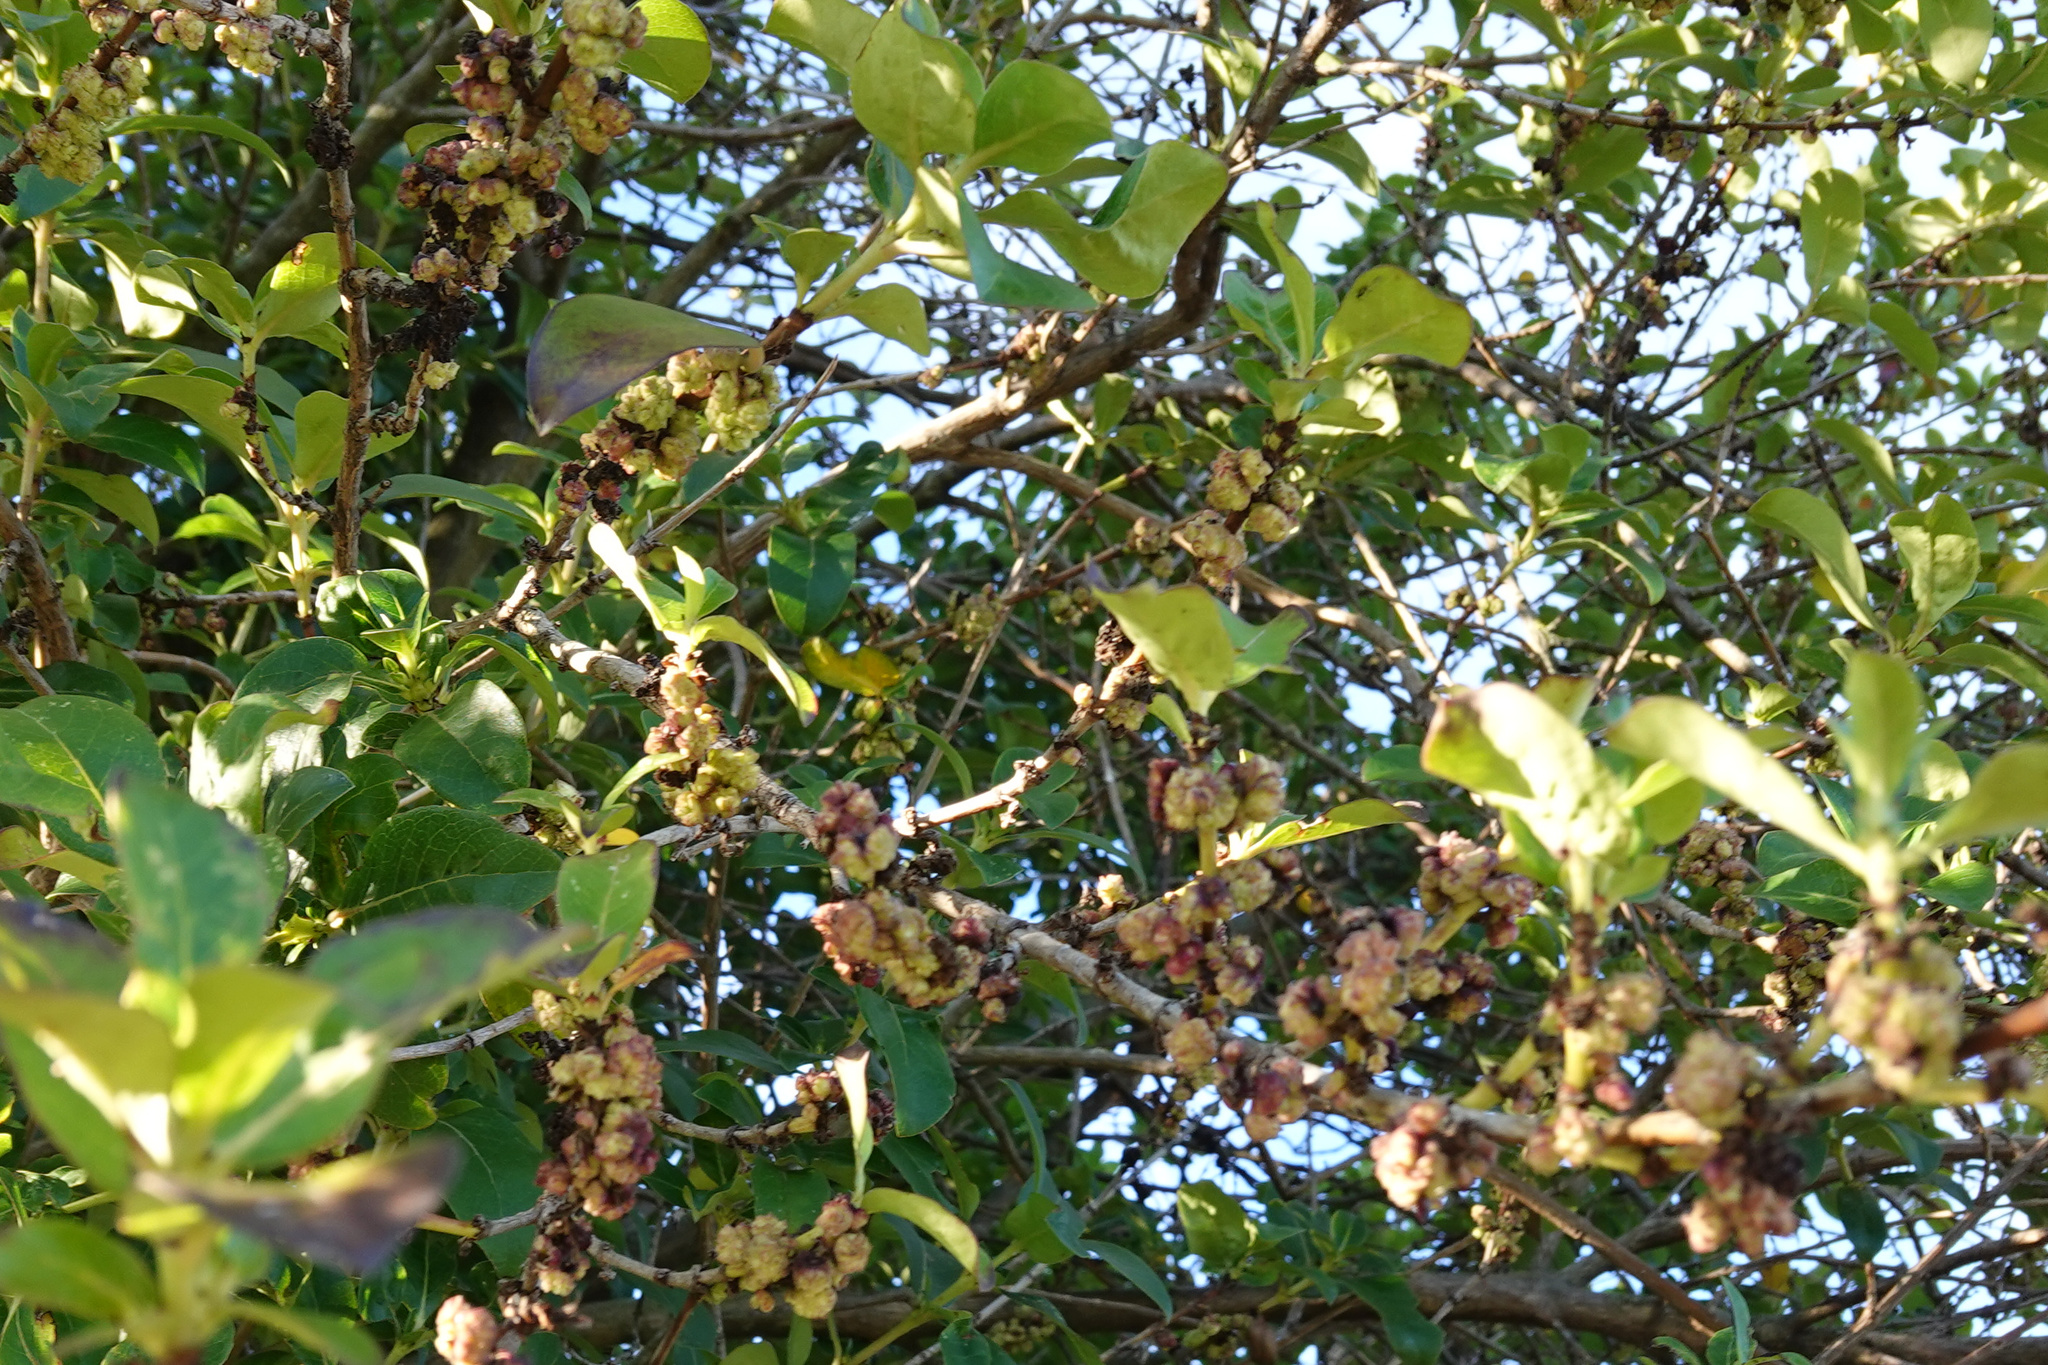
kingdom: Animalia
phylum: Arthropoda
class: Arachnida
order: Trombidiformes
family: Eriophyidae
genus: Acalitus
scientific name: Acalitus
